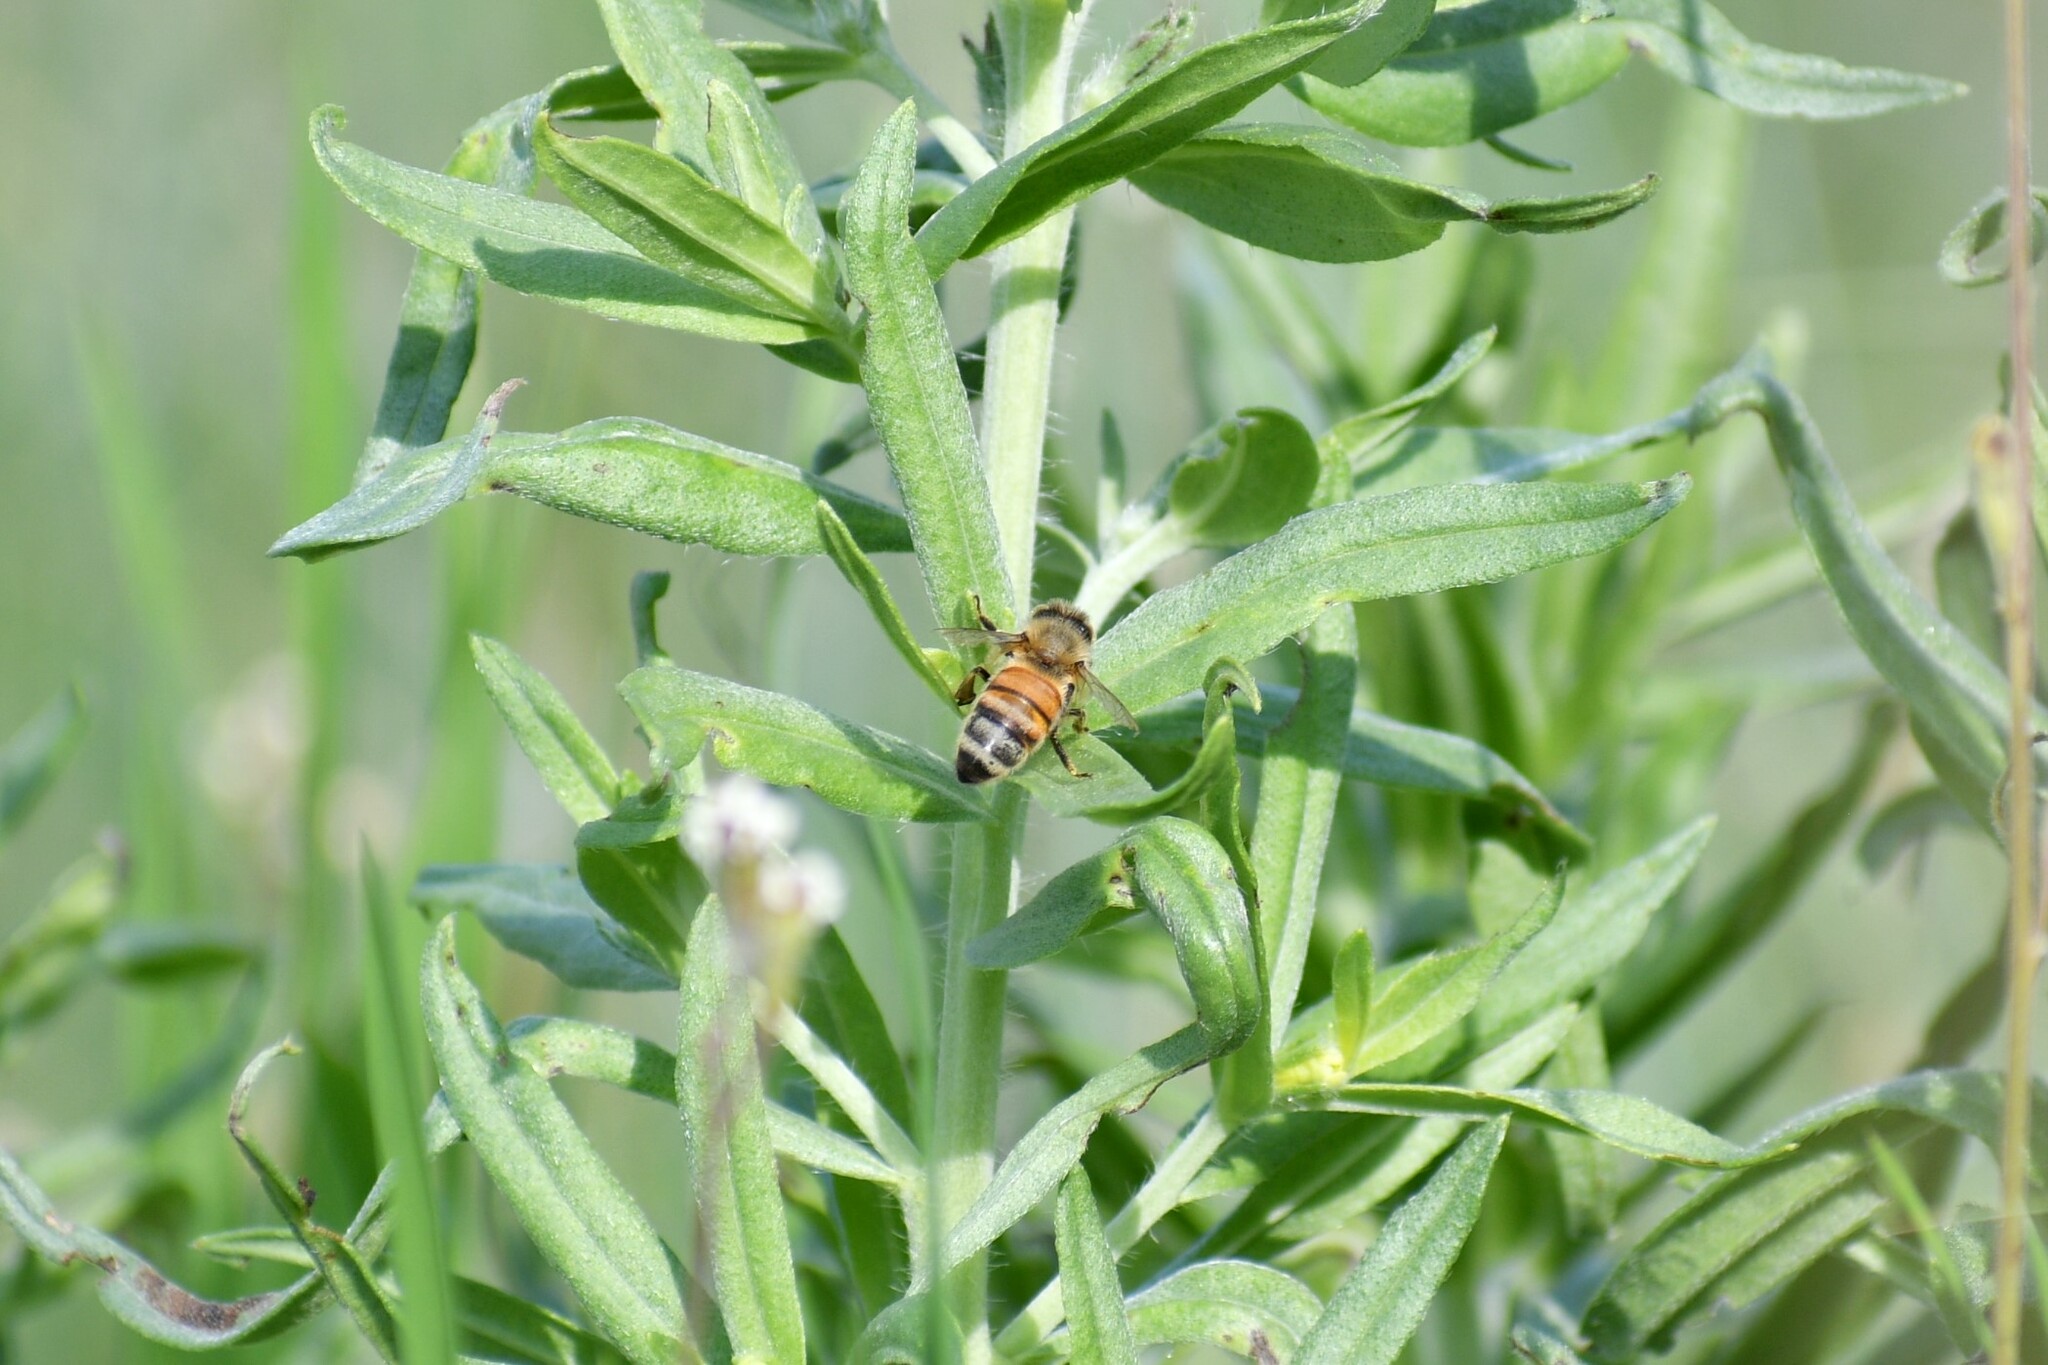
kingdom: Animalia
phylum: Arthropoda
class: Insecta
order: Hymenoptera
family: Apidae
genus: Apis
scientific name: Apis mellifera
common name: Honey bee
